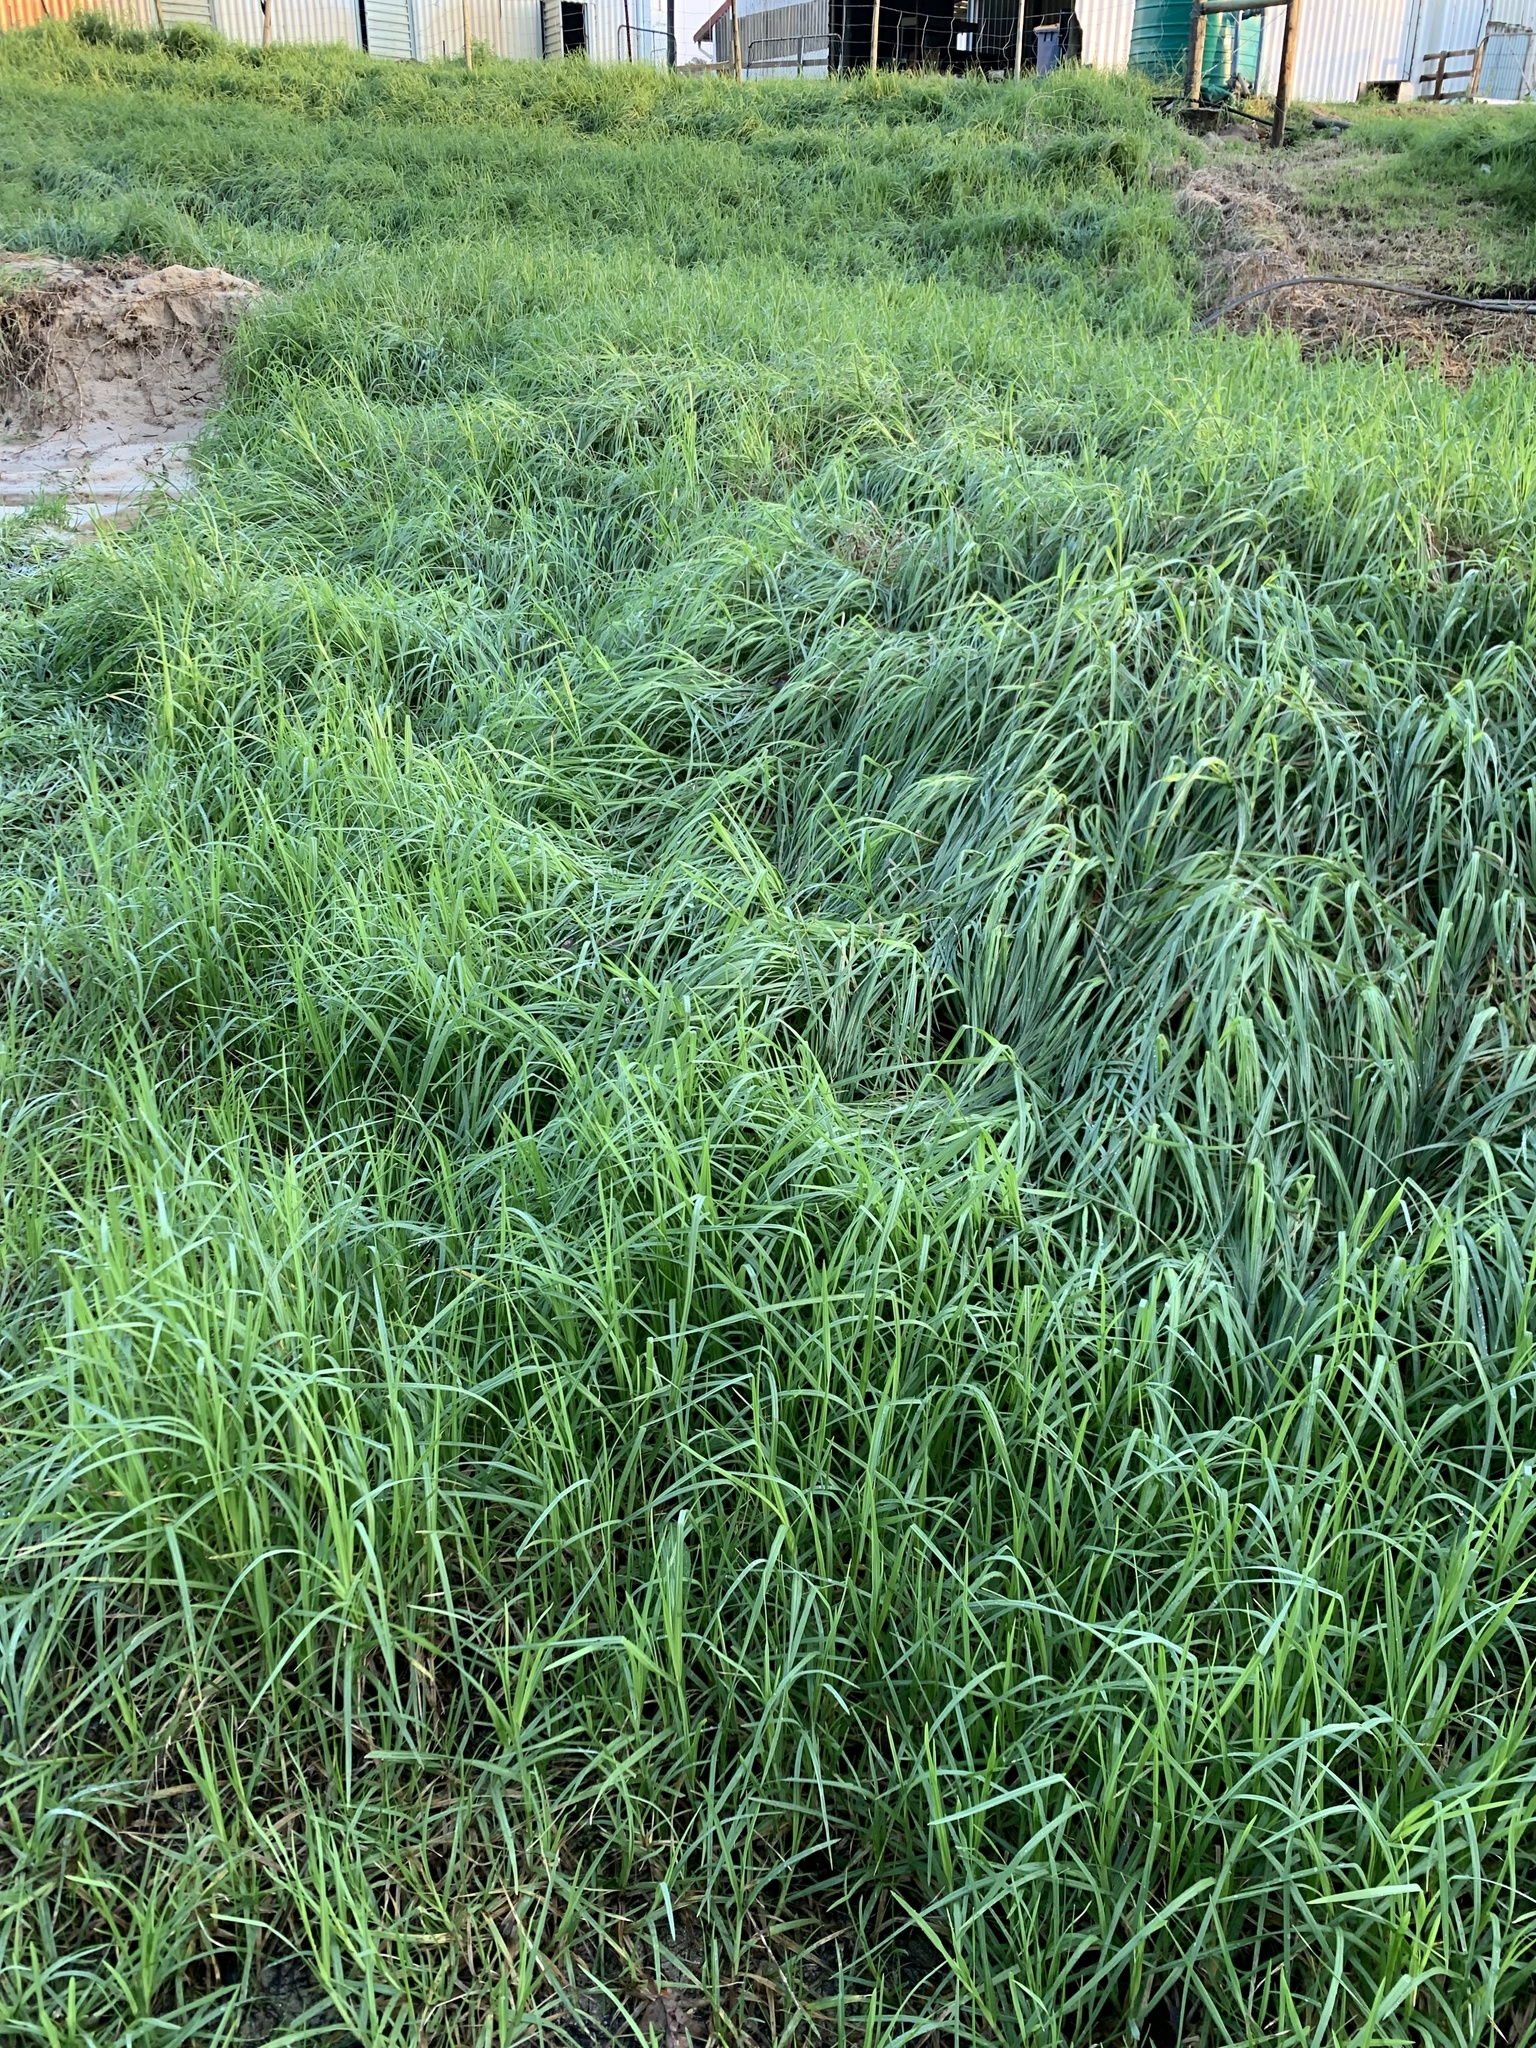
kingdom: Plantae
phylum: Tracheophyta
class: Liliopsida
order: Poales
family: Poaceae
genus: Cenchrus
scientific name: Cenchrus clandestinus
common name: Kikuyugrass
